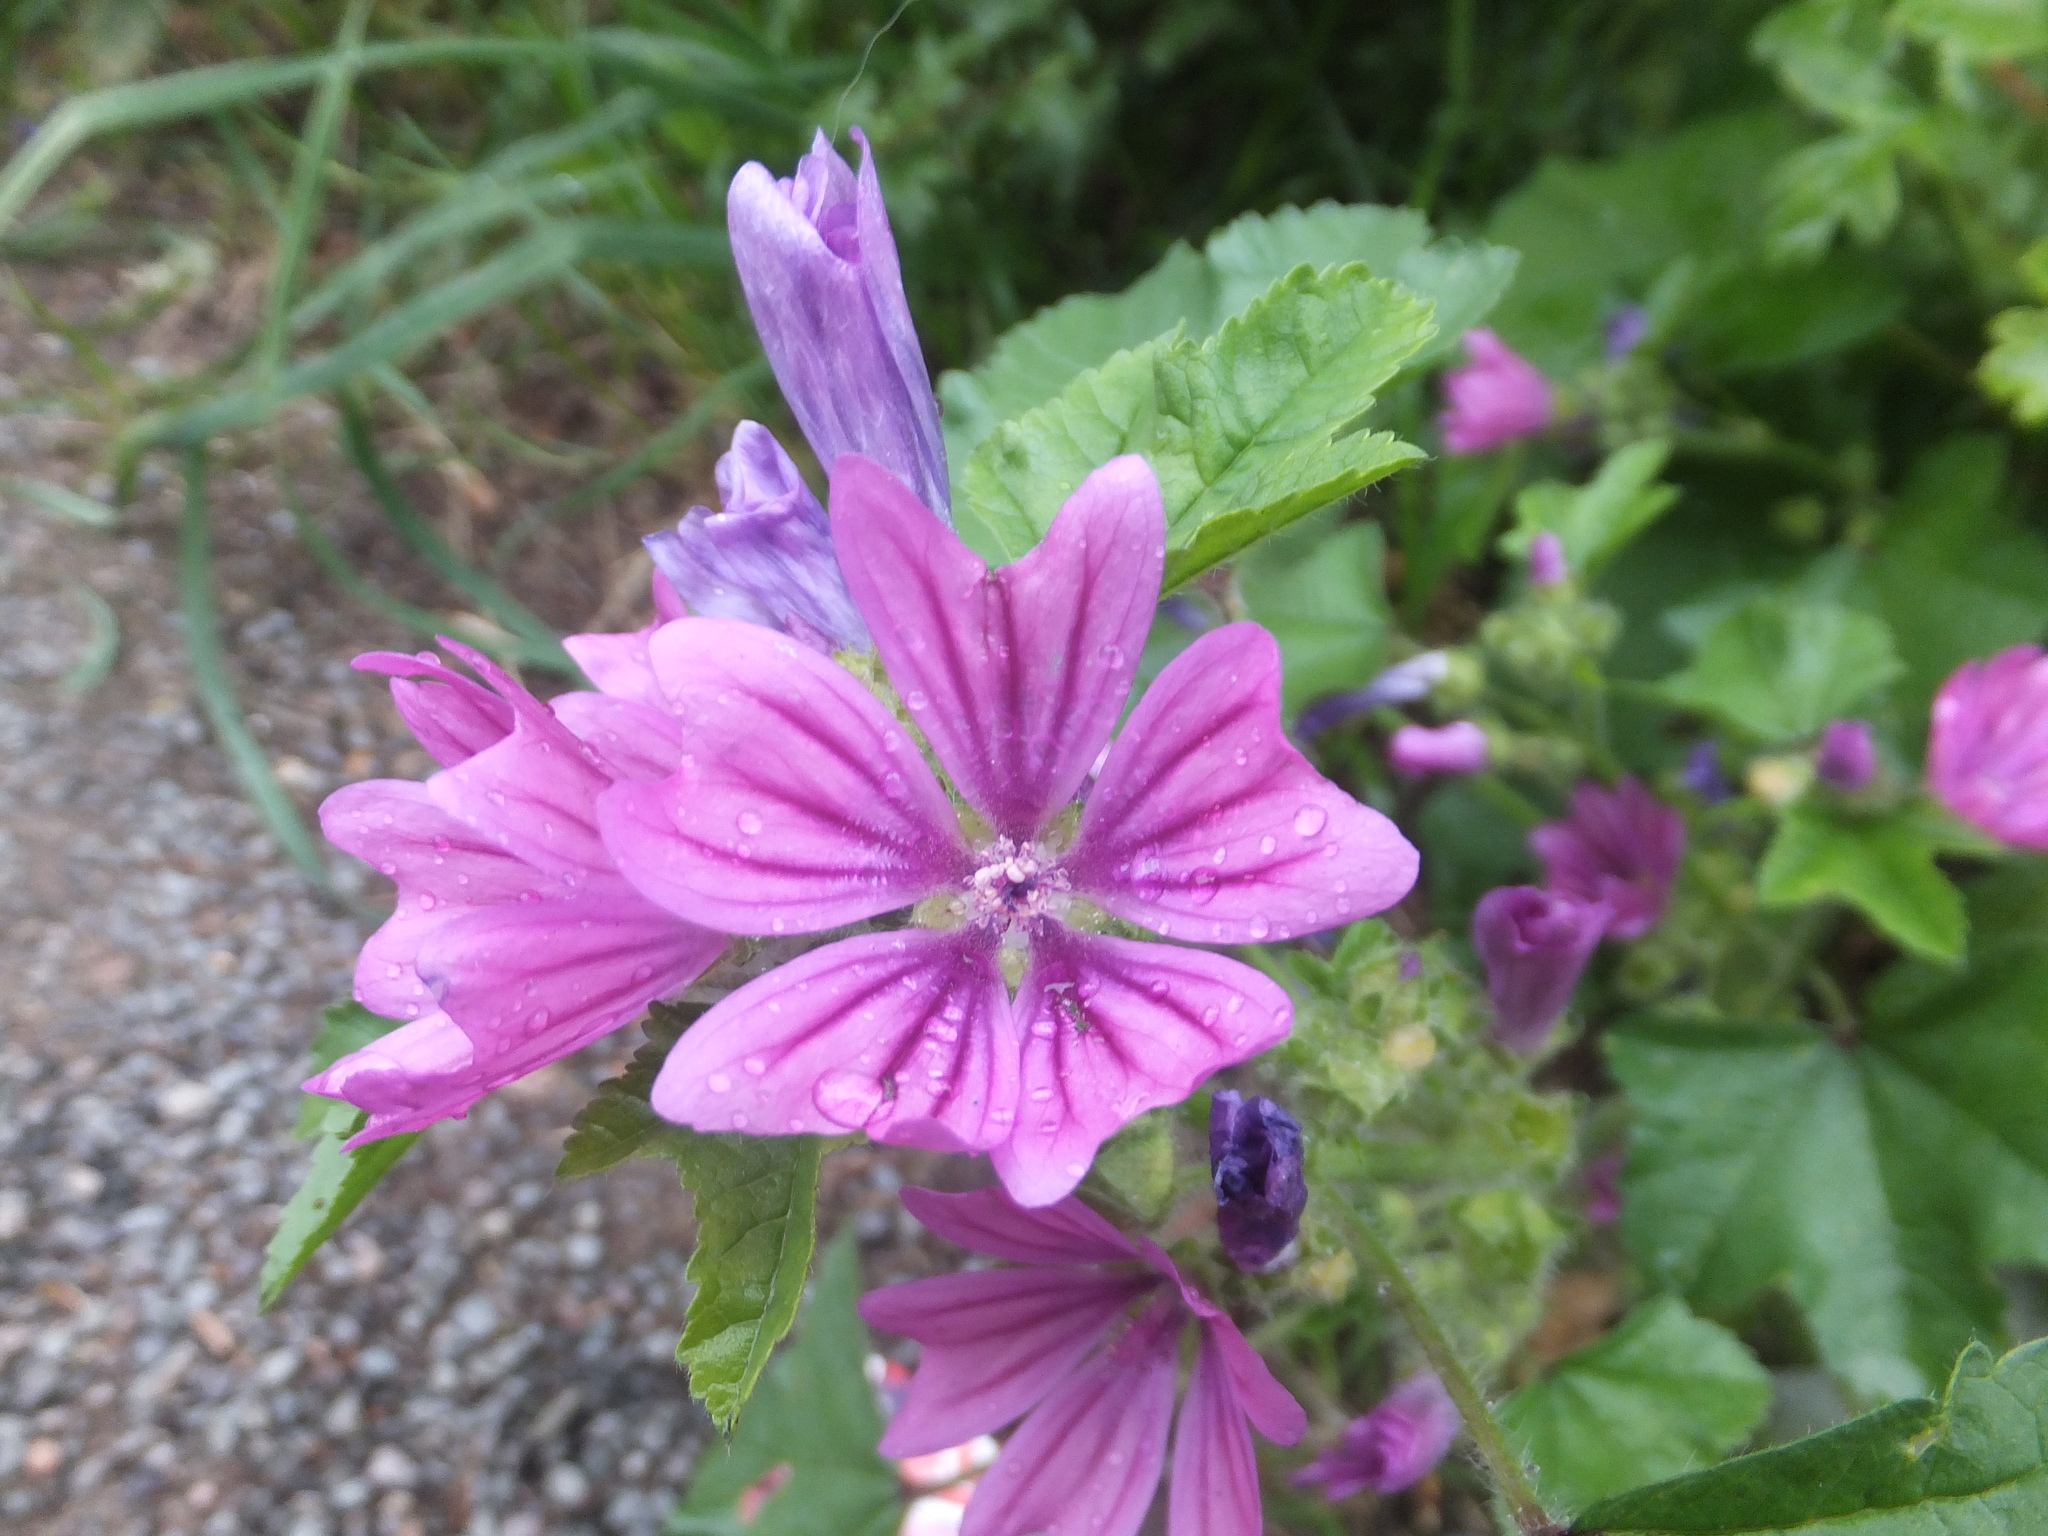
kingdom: Plantae
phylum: Tracheophyta
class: Magnoliopsida
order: Malvales
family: Malvaceae
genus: Malva
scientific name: Malva sylvestris
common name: Common mallow
